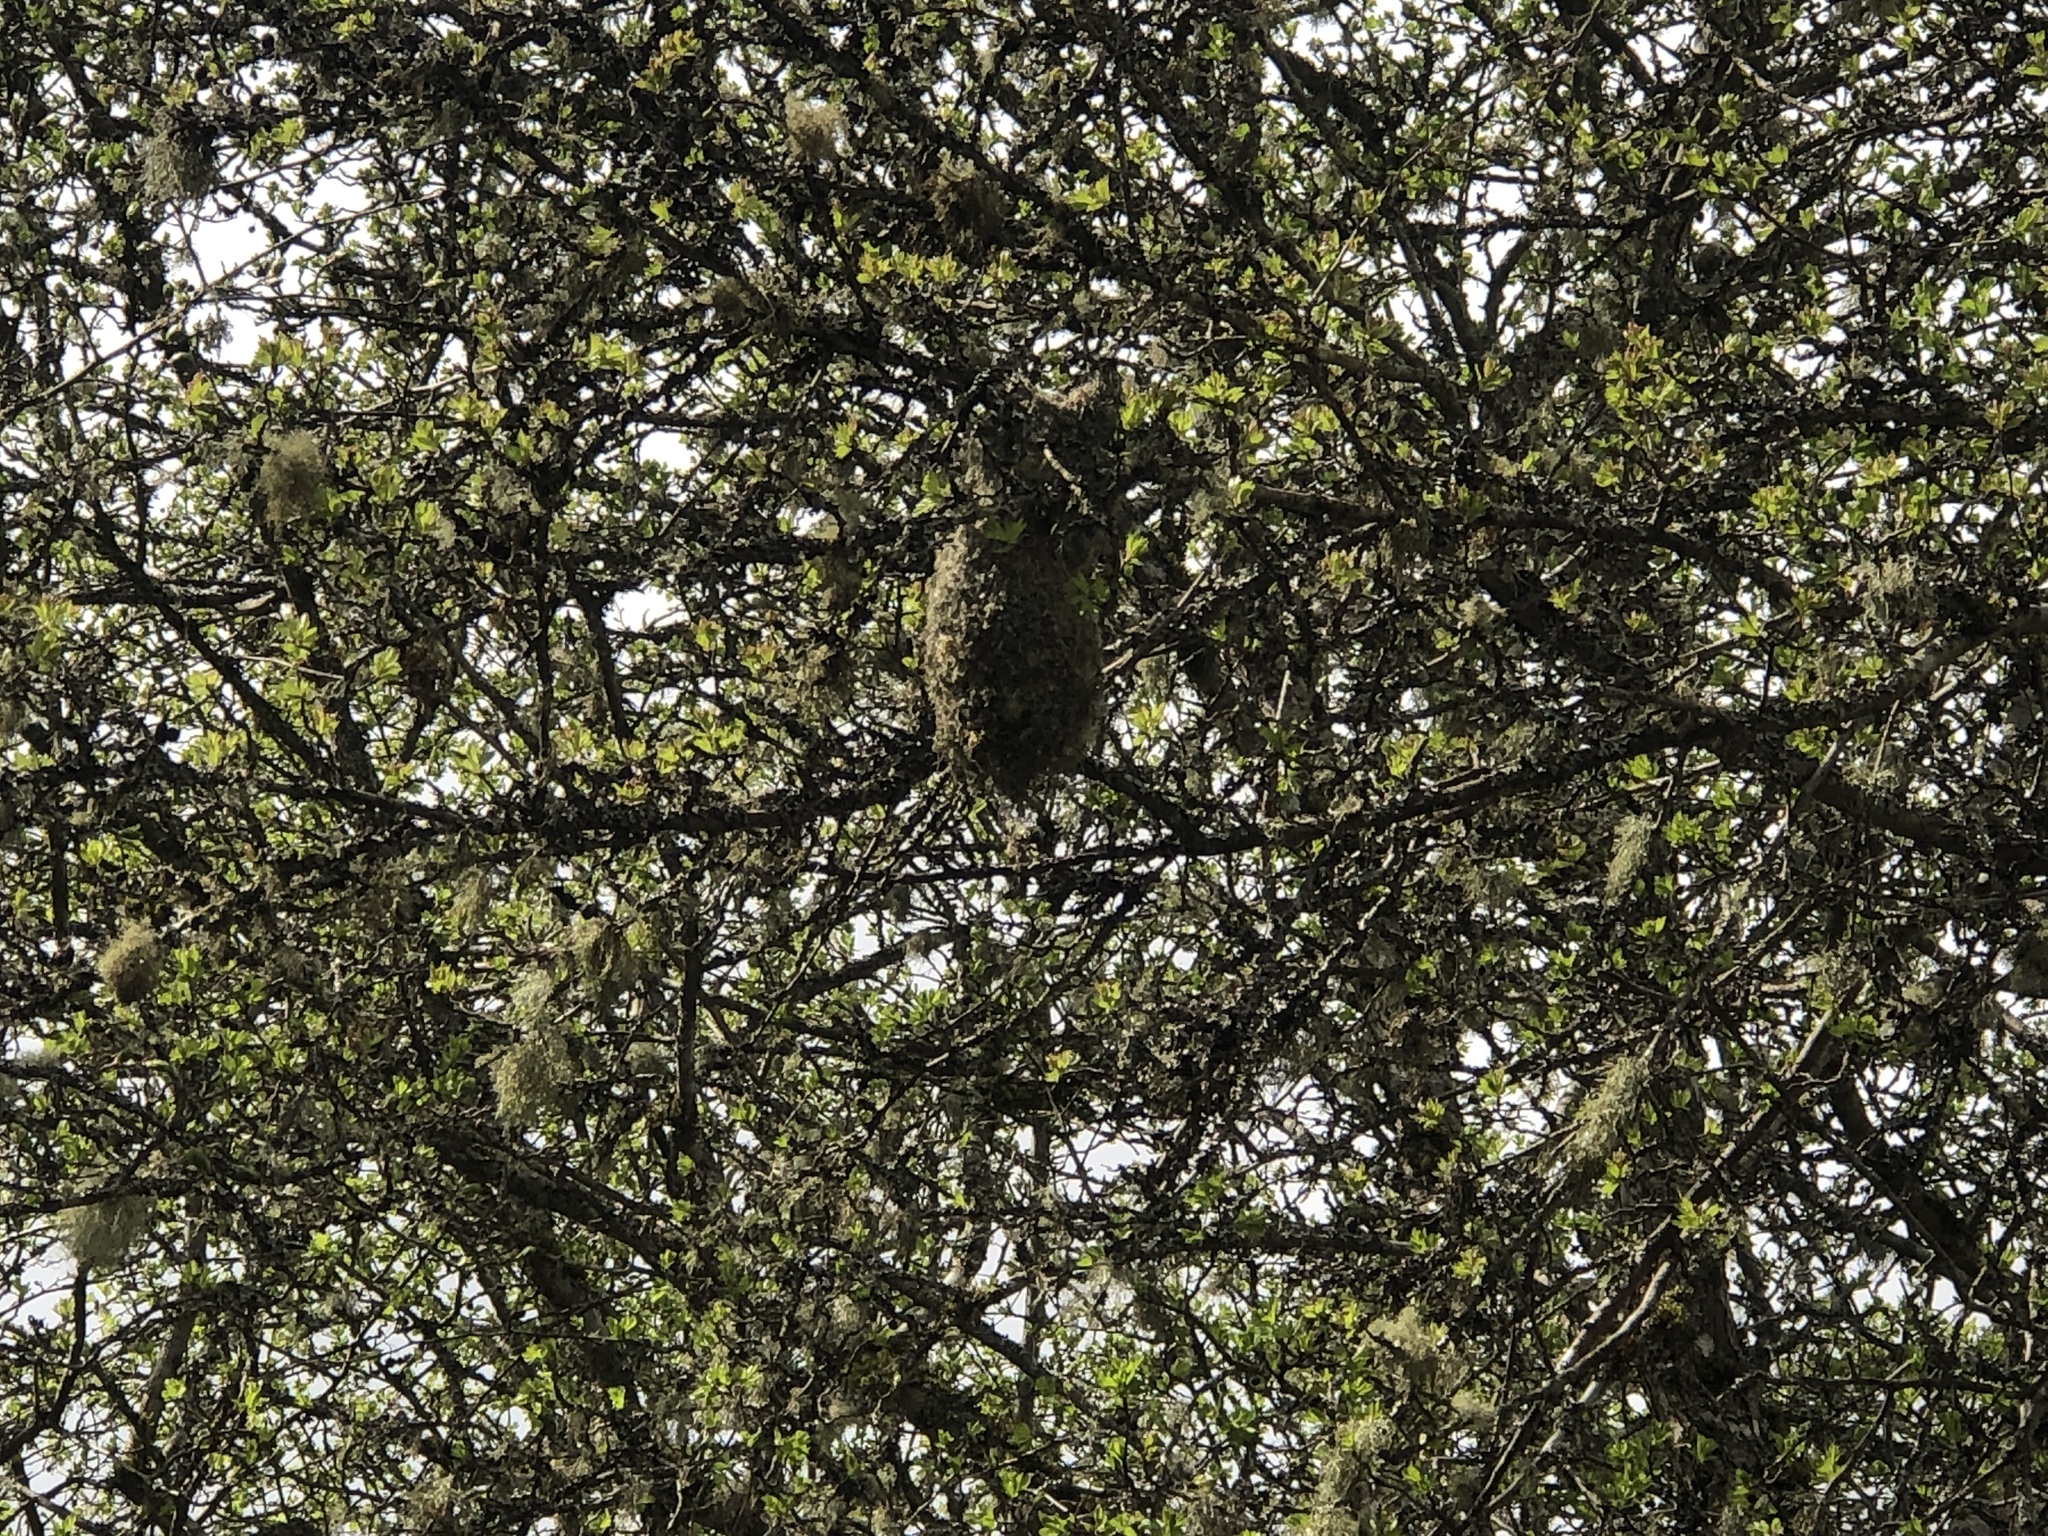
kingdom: Animalia
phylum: Chordata
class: Aves
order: Passeriformes
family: Aegithalidae
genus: Psaltriparus
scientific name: Psaltriparus minimus
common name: American bushtit
